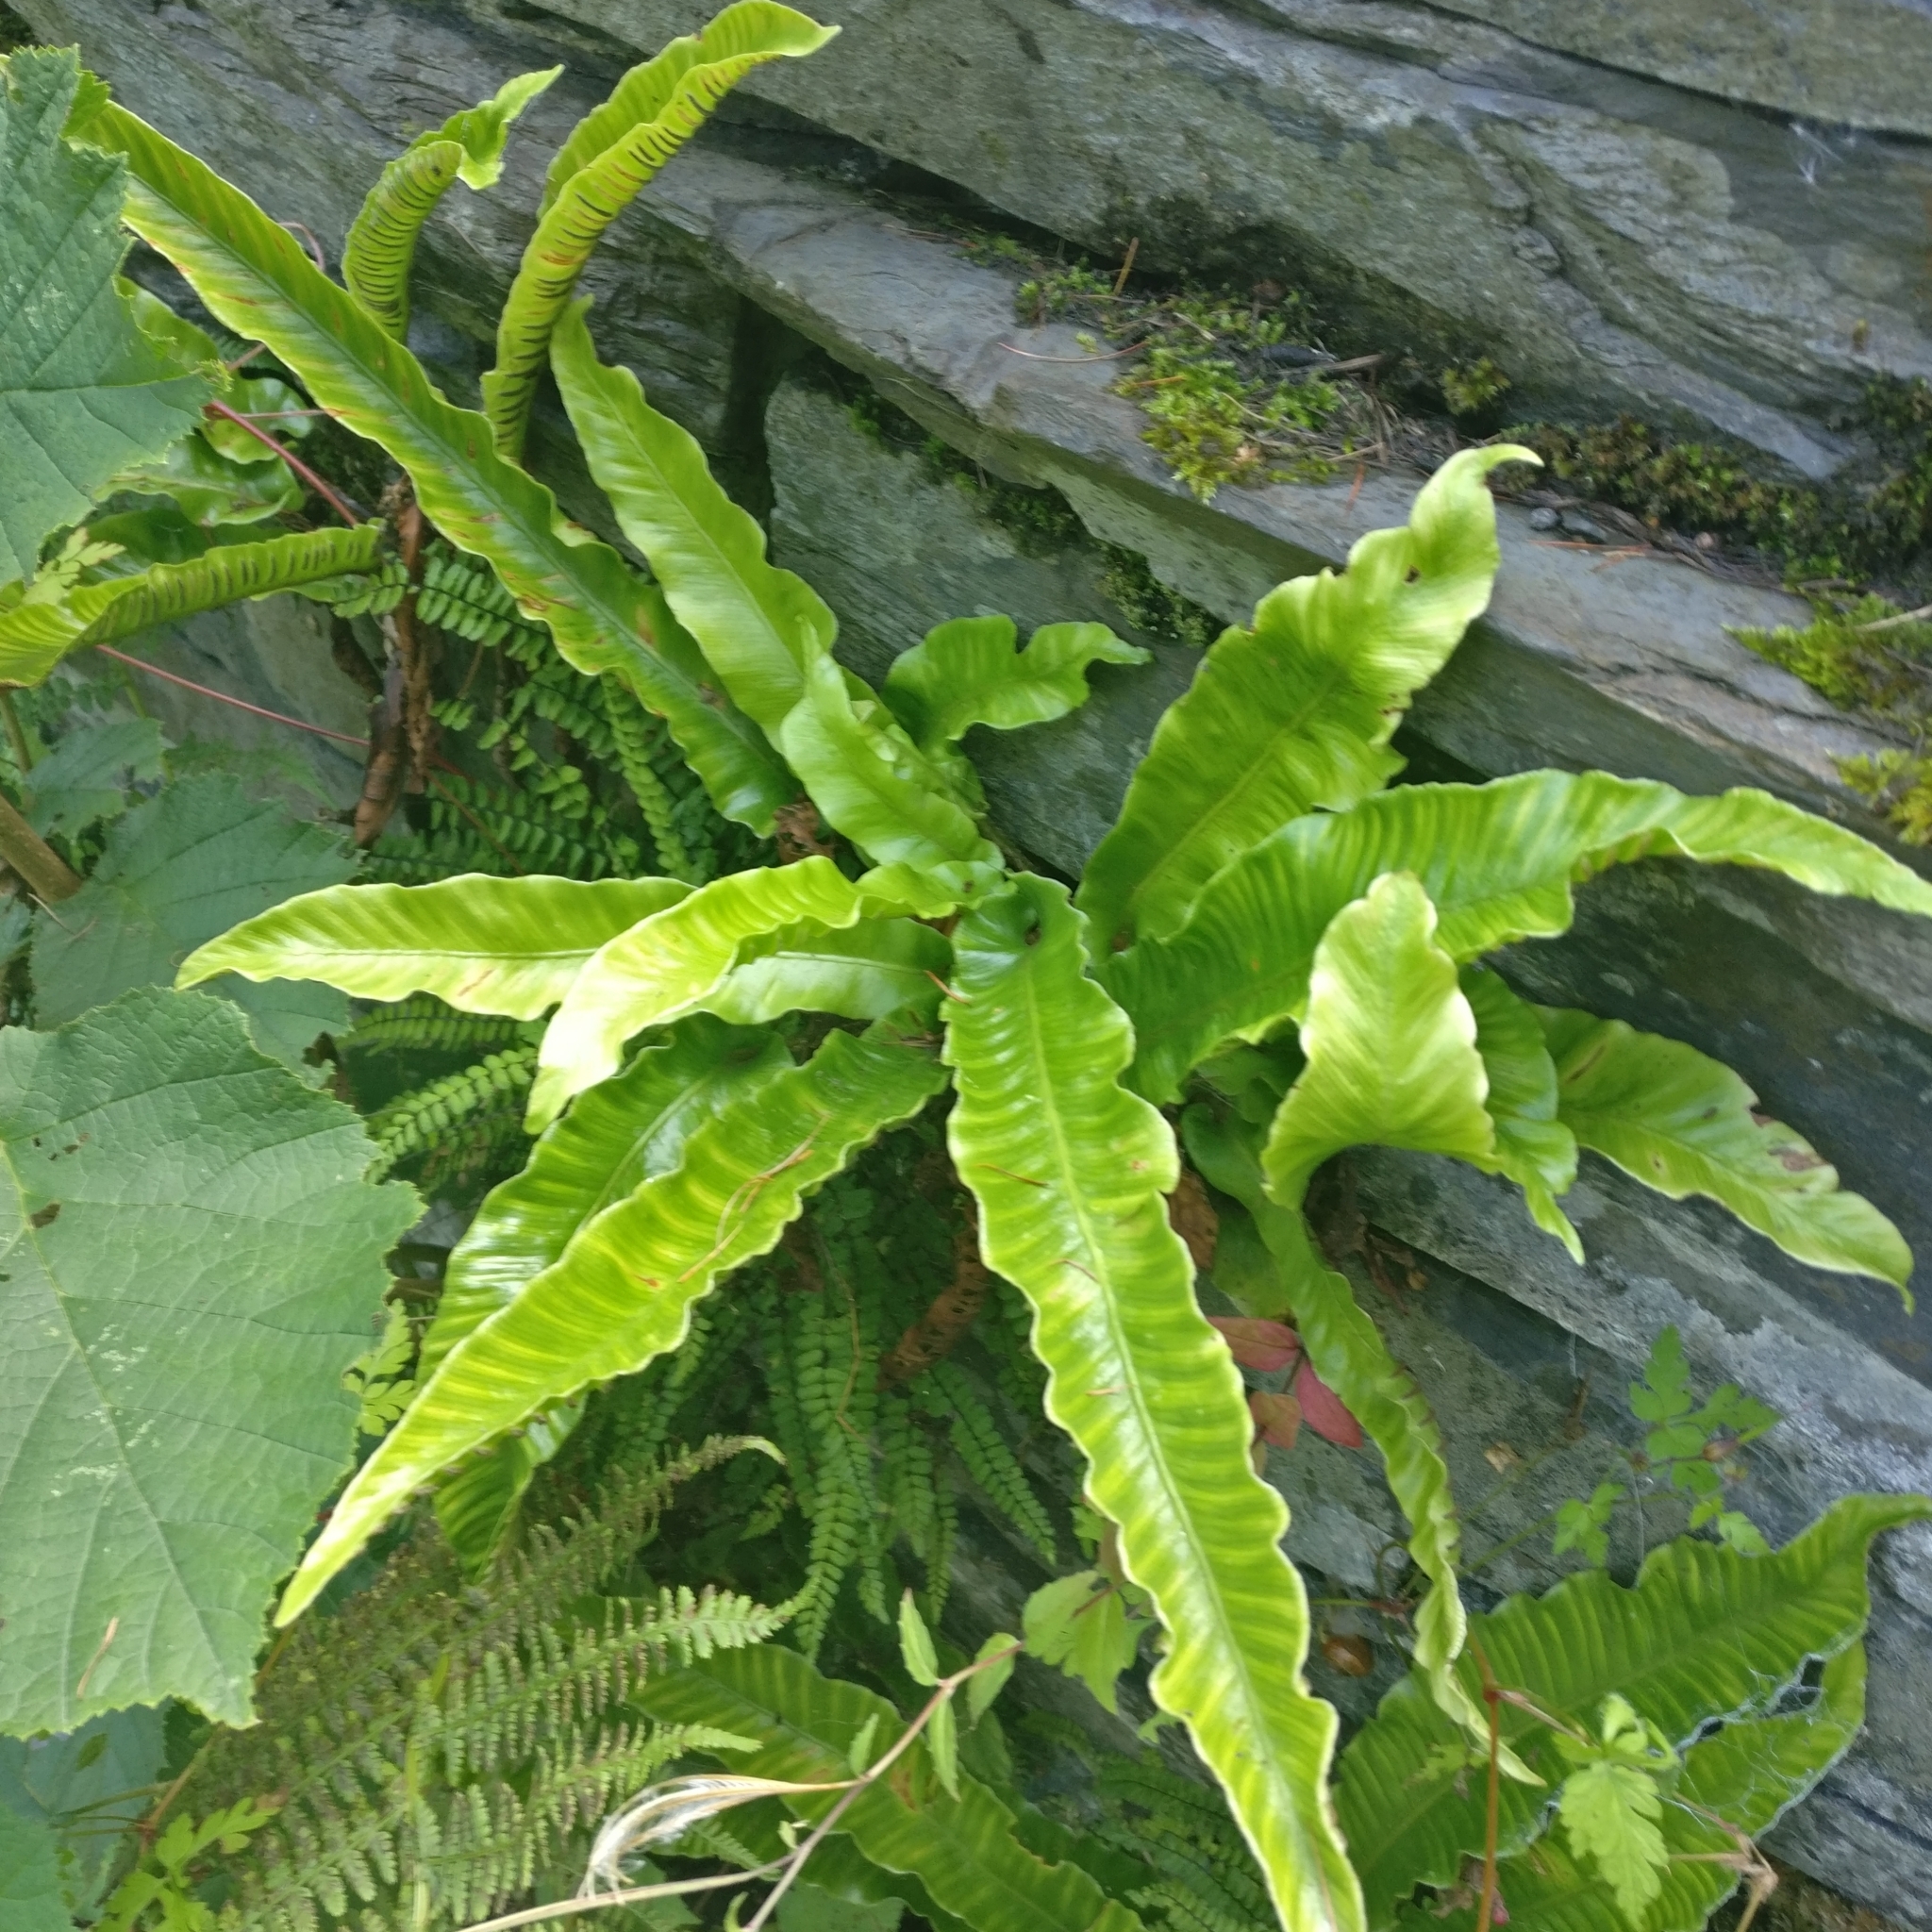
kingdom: Plantae
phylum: Tracheophyta
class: Polypodiopsida
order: Polypodiales
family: Aspleniaceae
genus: Asplenium
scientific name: Asplenium scolopendrium
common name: Hart's-tongue fern
